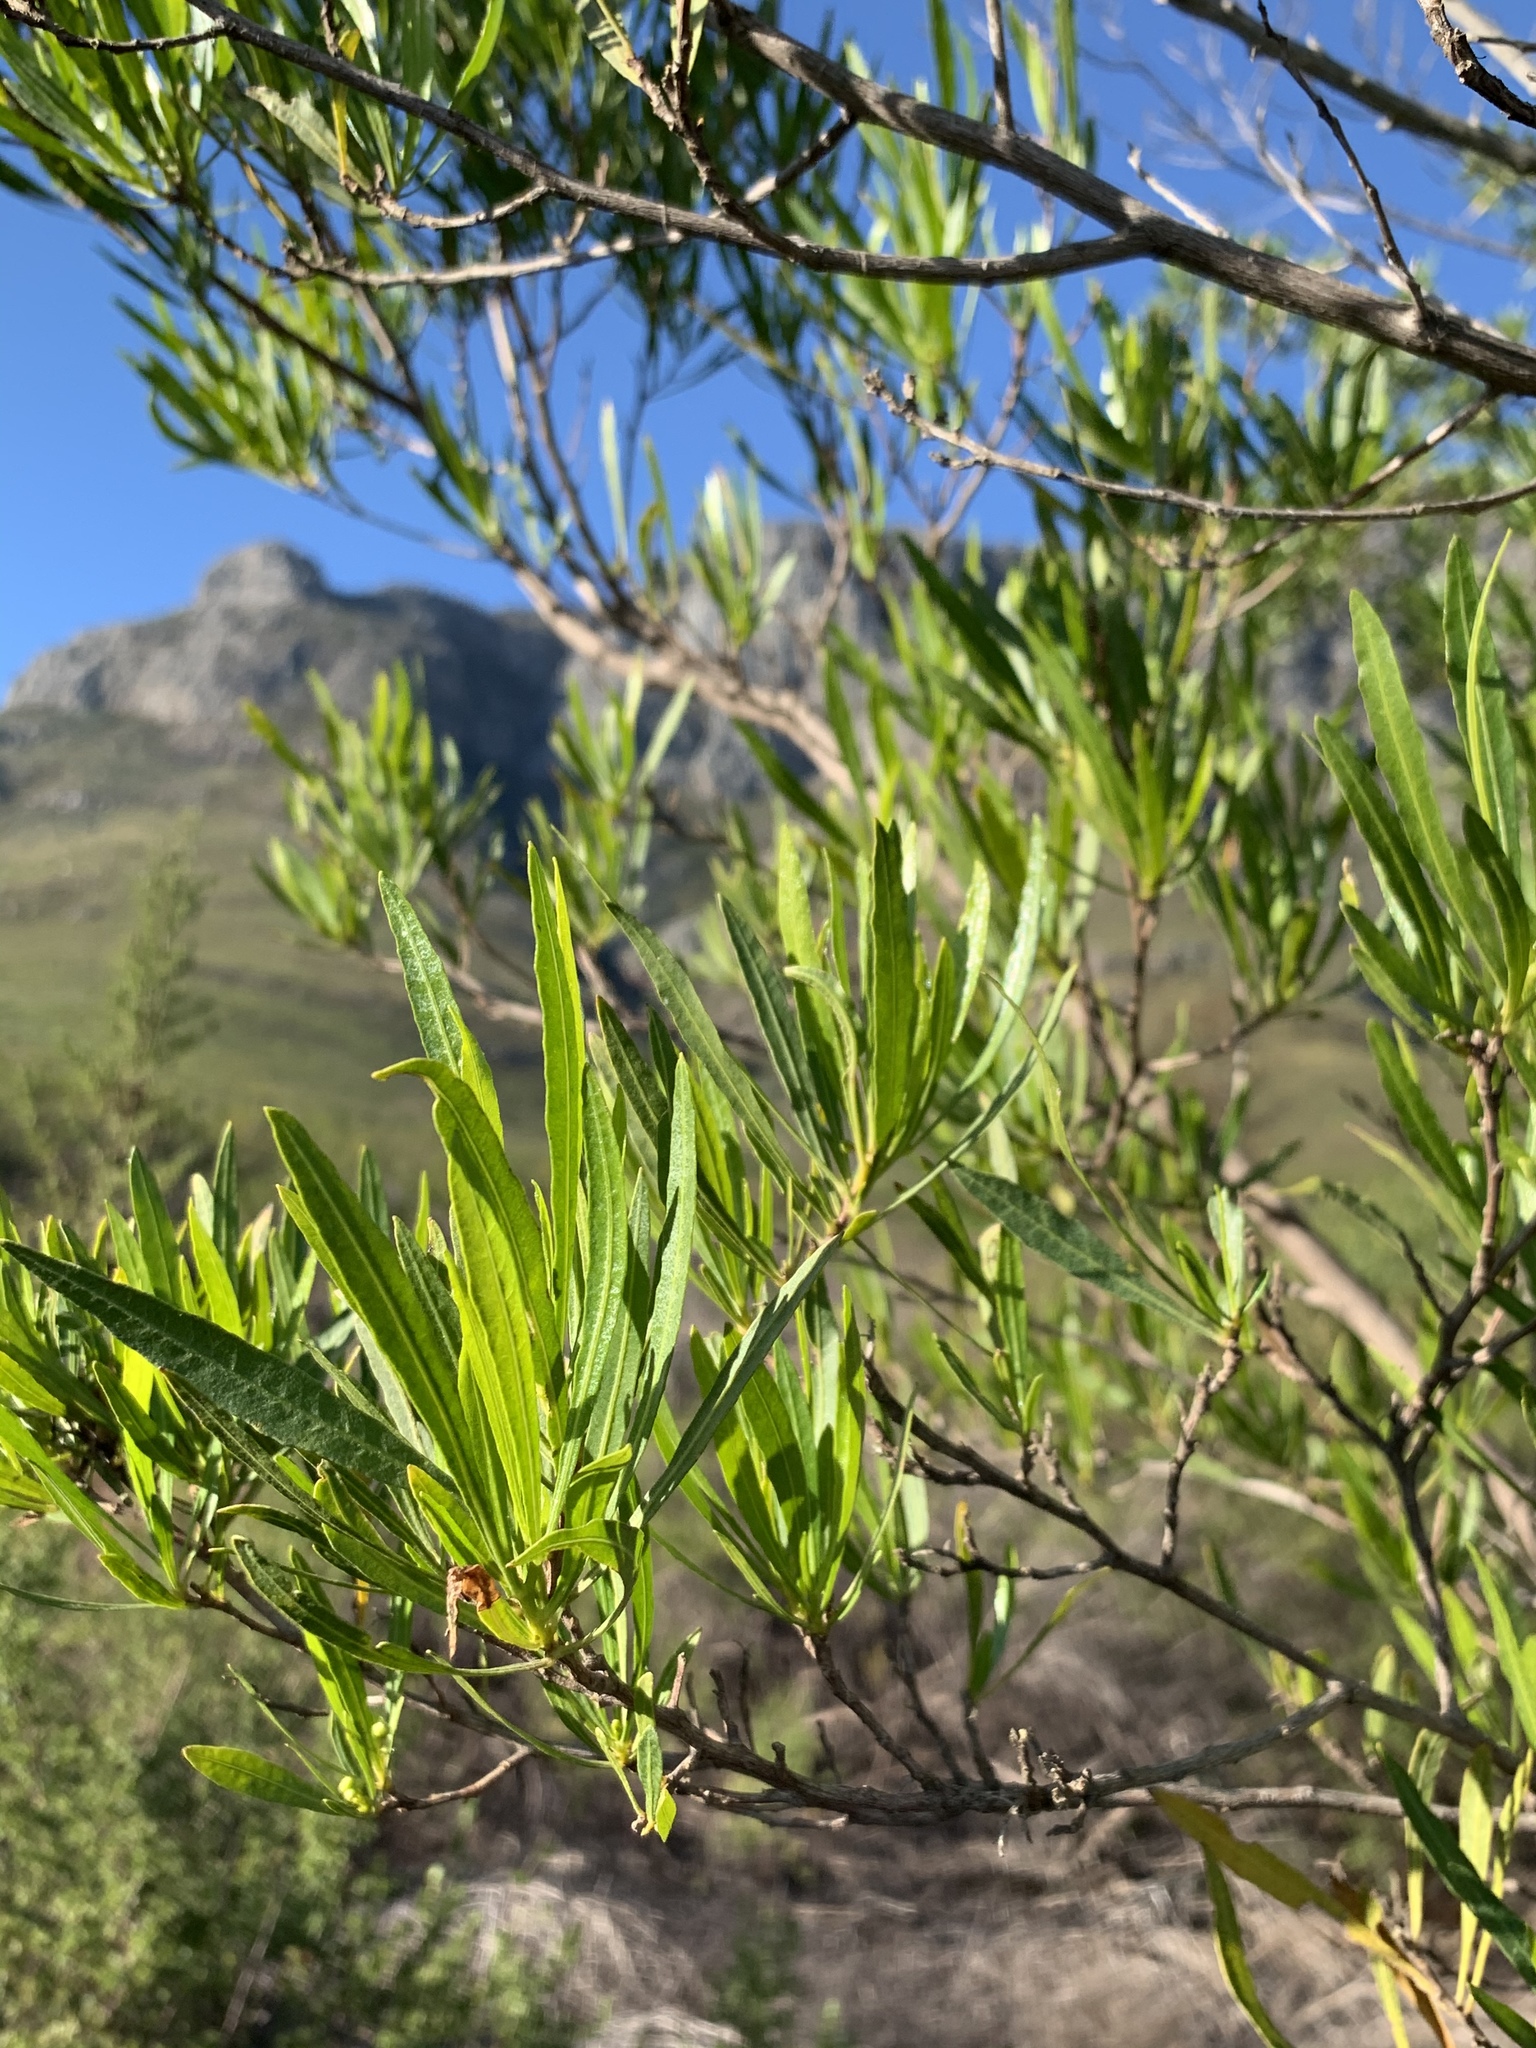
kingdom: Plantae
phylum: Tracheophyta
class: Magnoliopsida
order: Sapindales
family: Sapindaceae
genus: Dodonaea
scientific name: Dodonaea viscosa
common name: Hopbush
